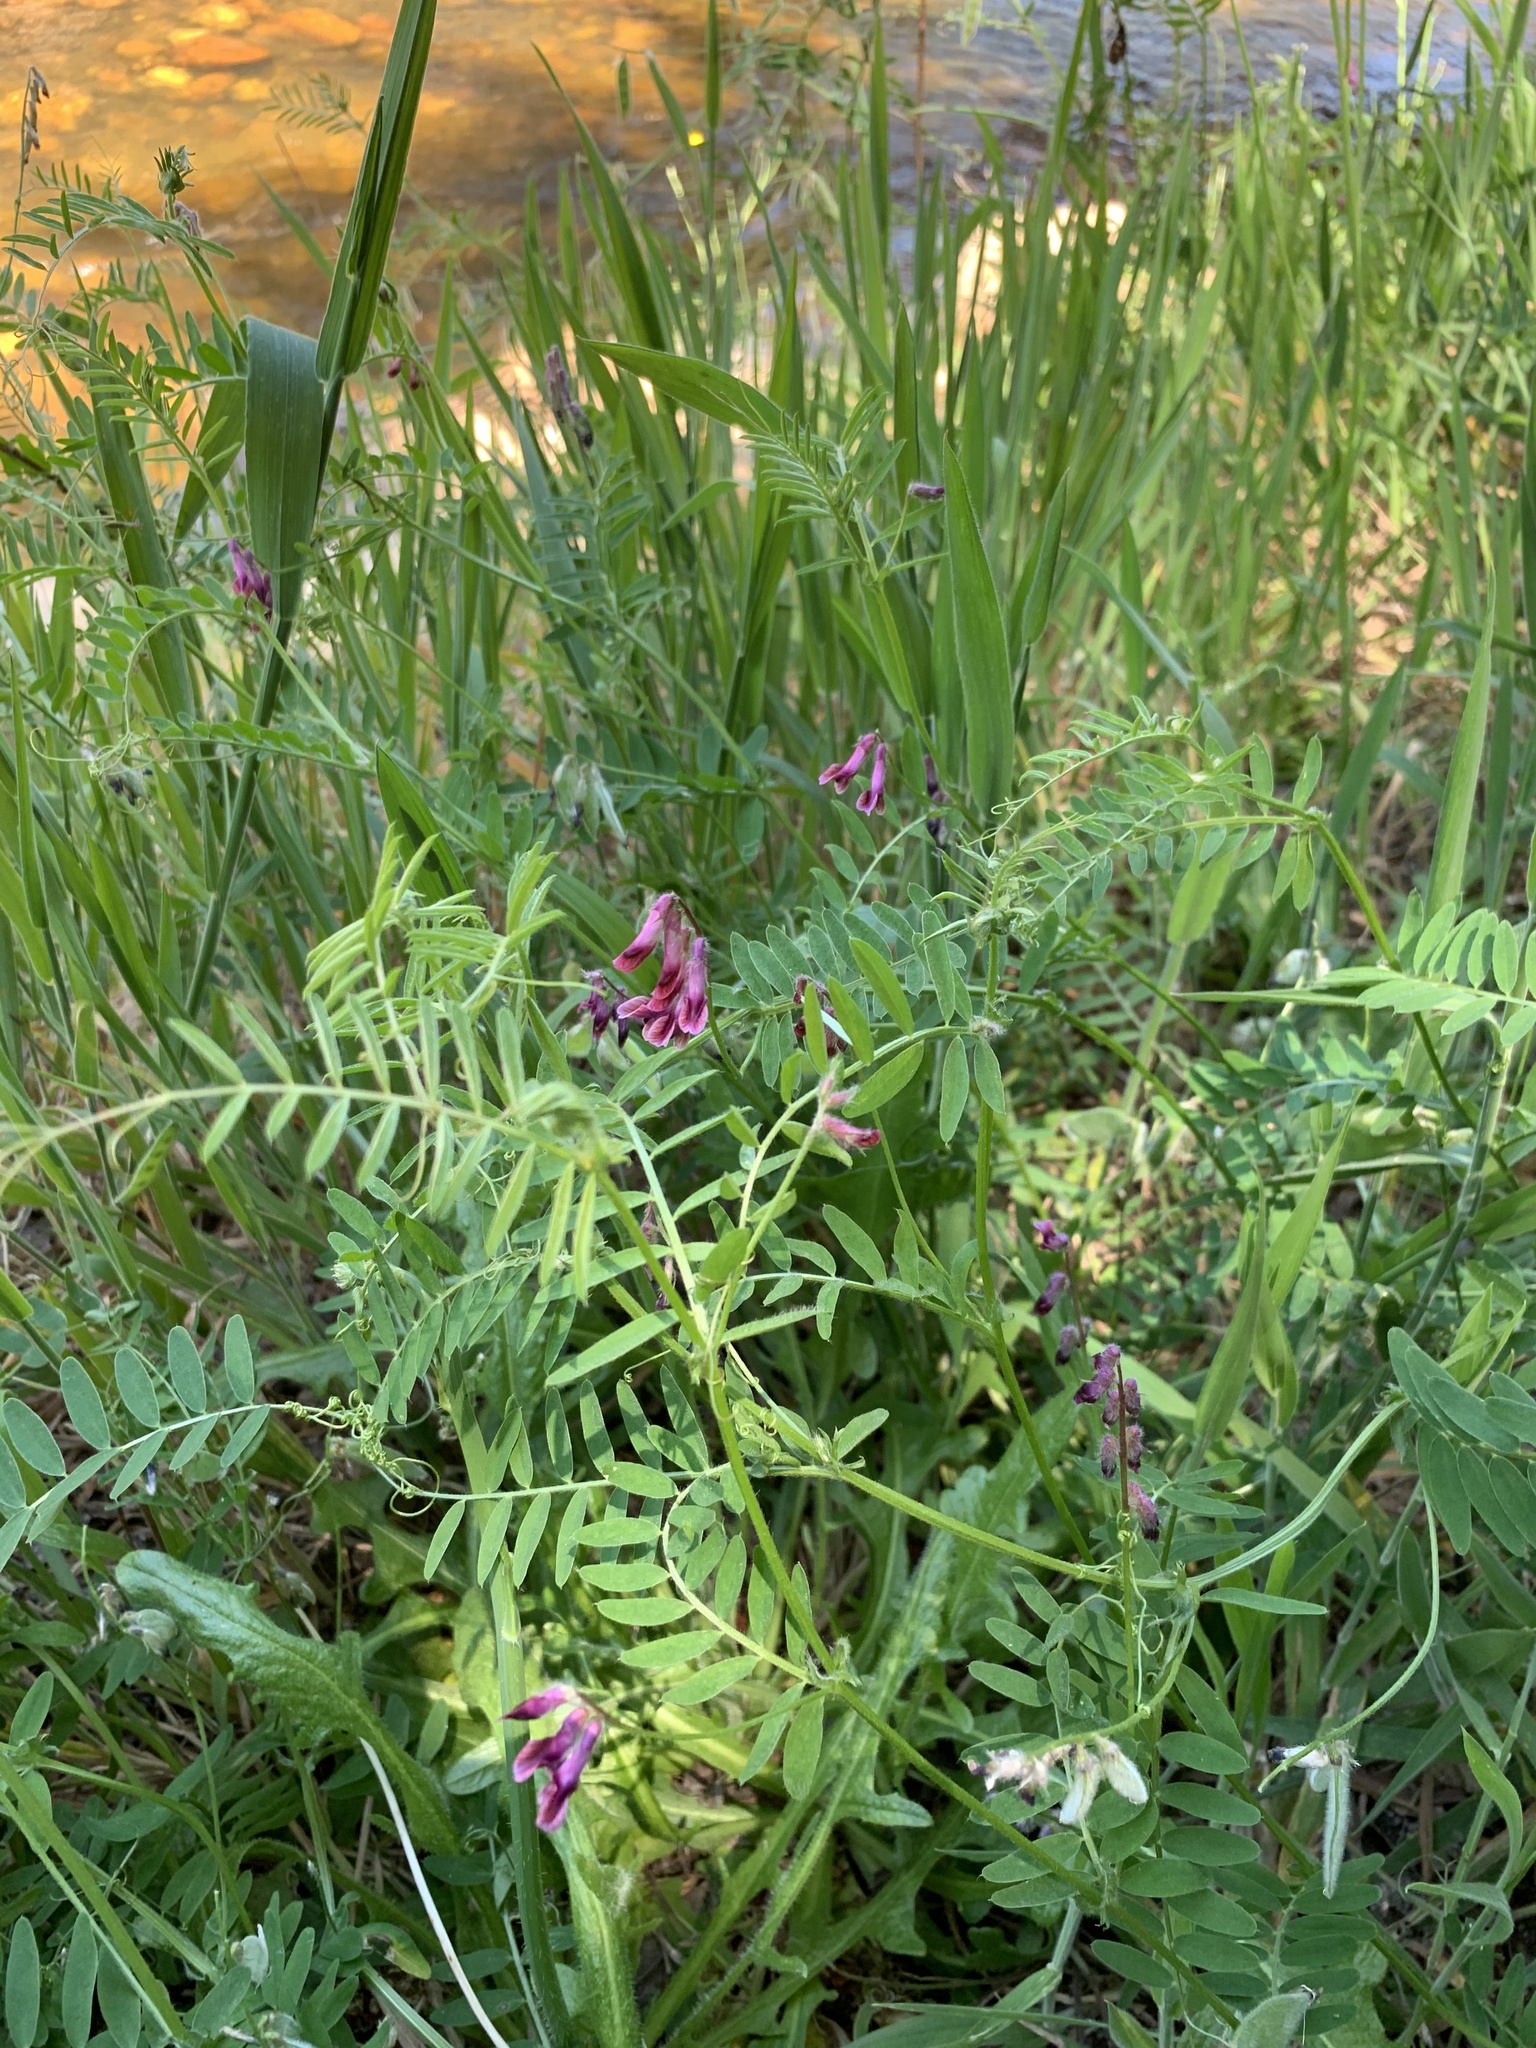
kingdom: Plantae
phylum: Tracheophyta
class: Magnoliopsida
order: Fabales
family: Fabaceae
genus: Vicia
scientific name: Vicia benghalensis
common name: Purple vetch
